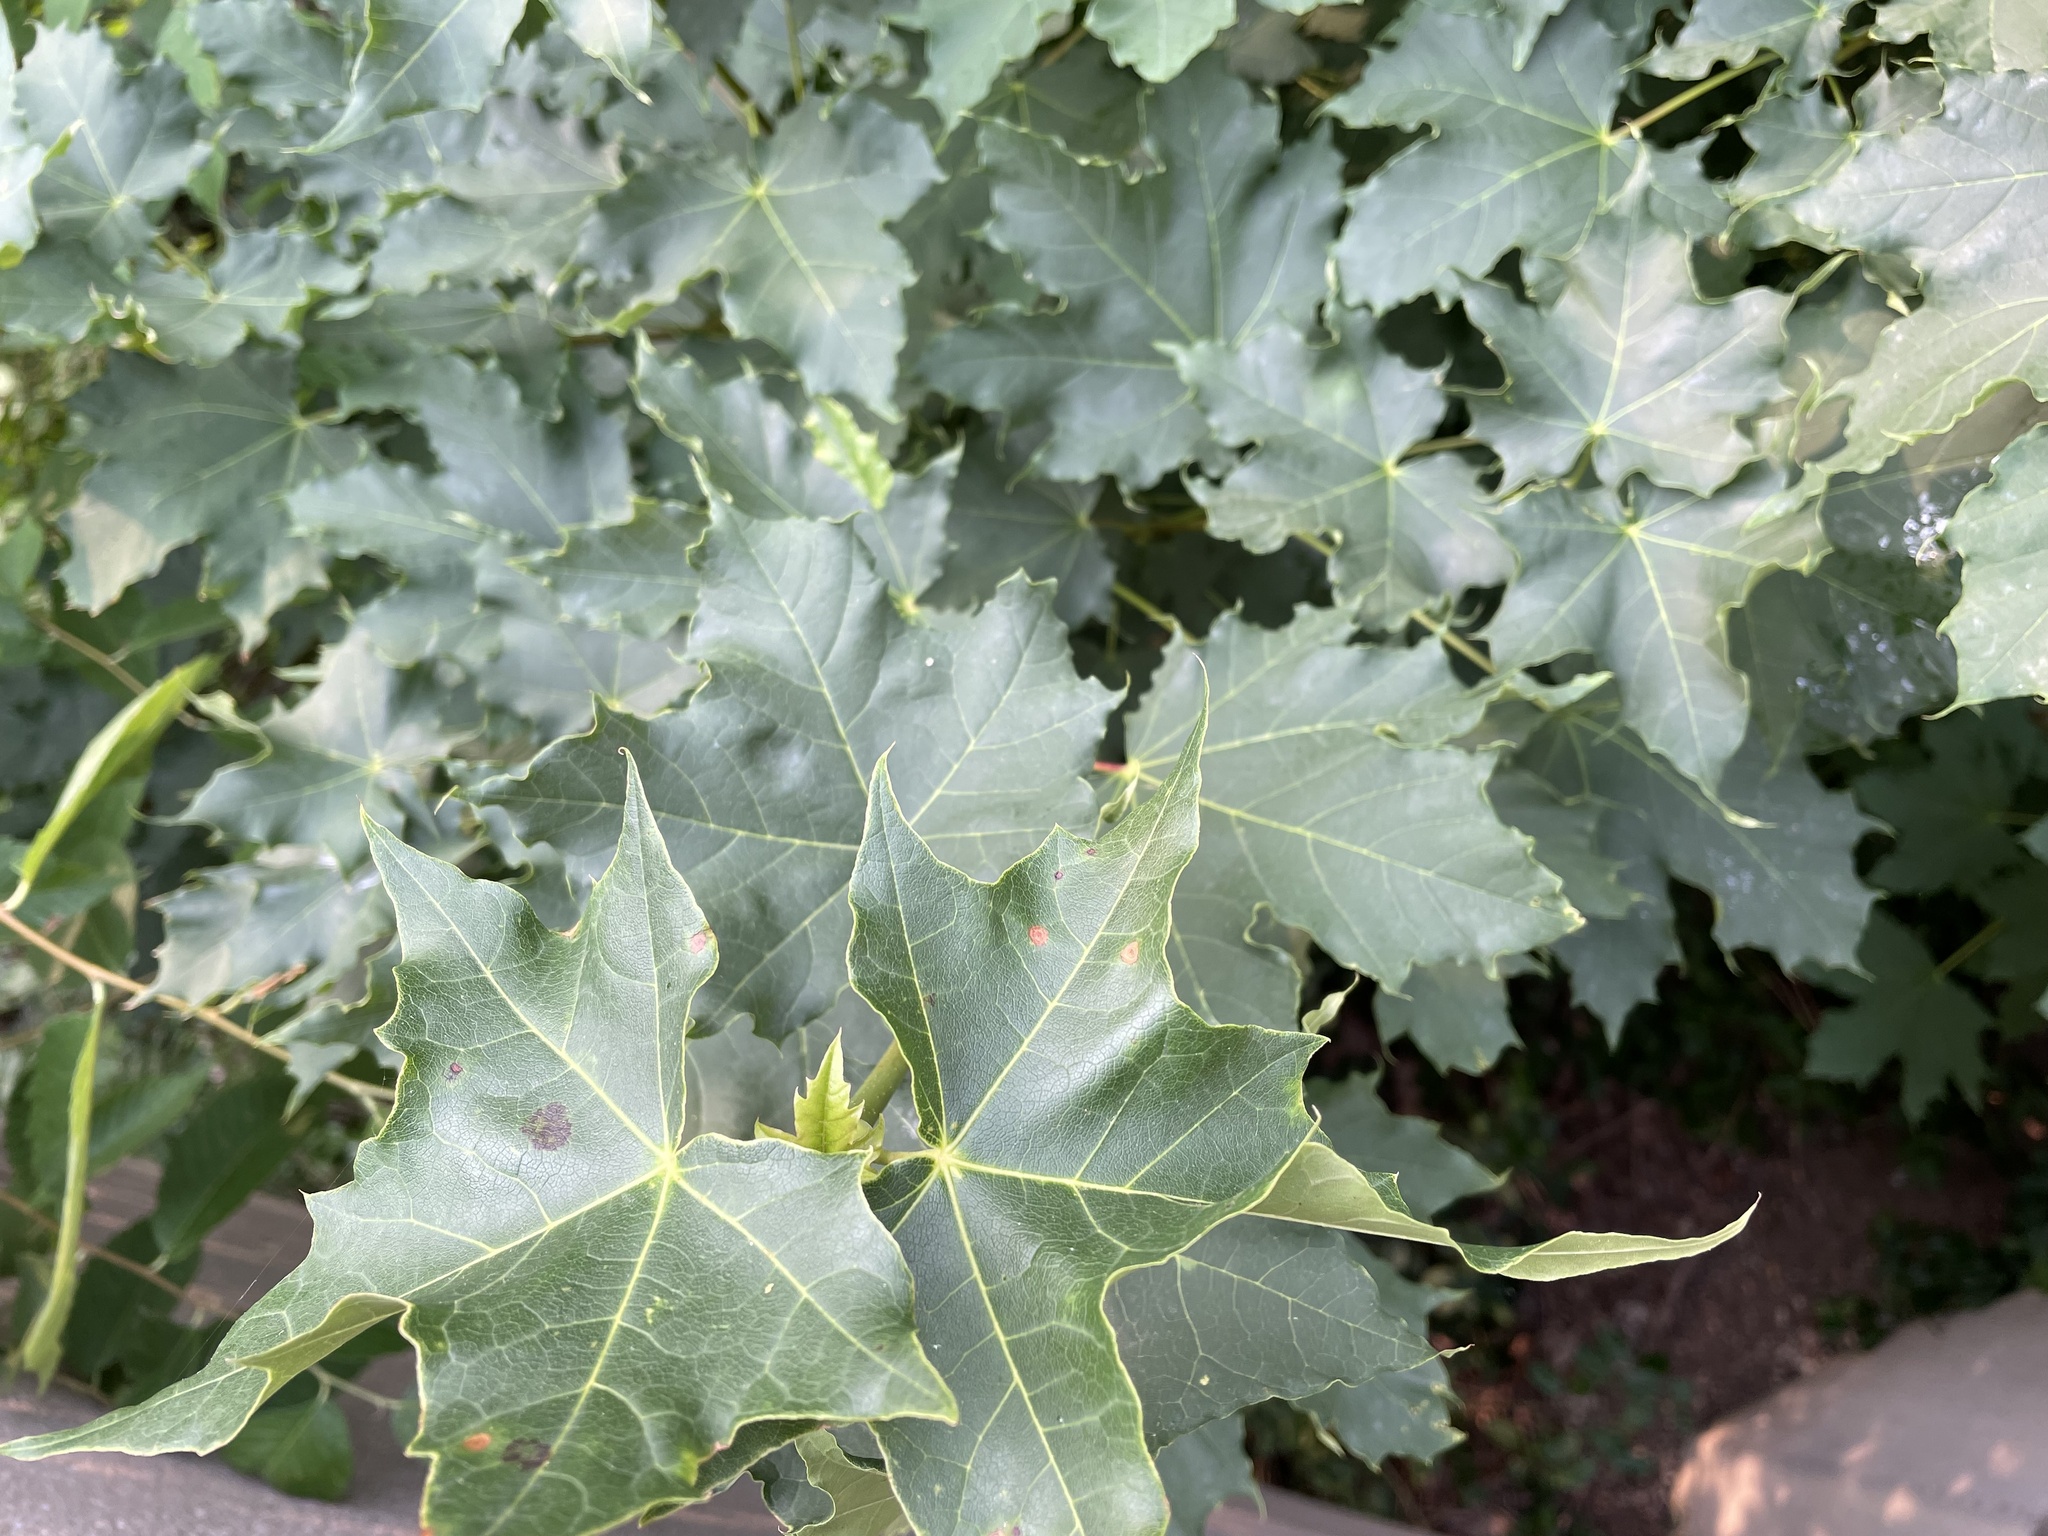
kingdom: Plantae
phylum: Tracheophyta
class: Magnoliopsida
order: Sapindales
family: Sapindaceae
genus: Acer
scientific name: Acer platanoides
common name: Norway maple
